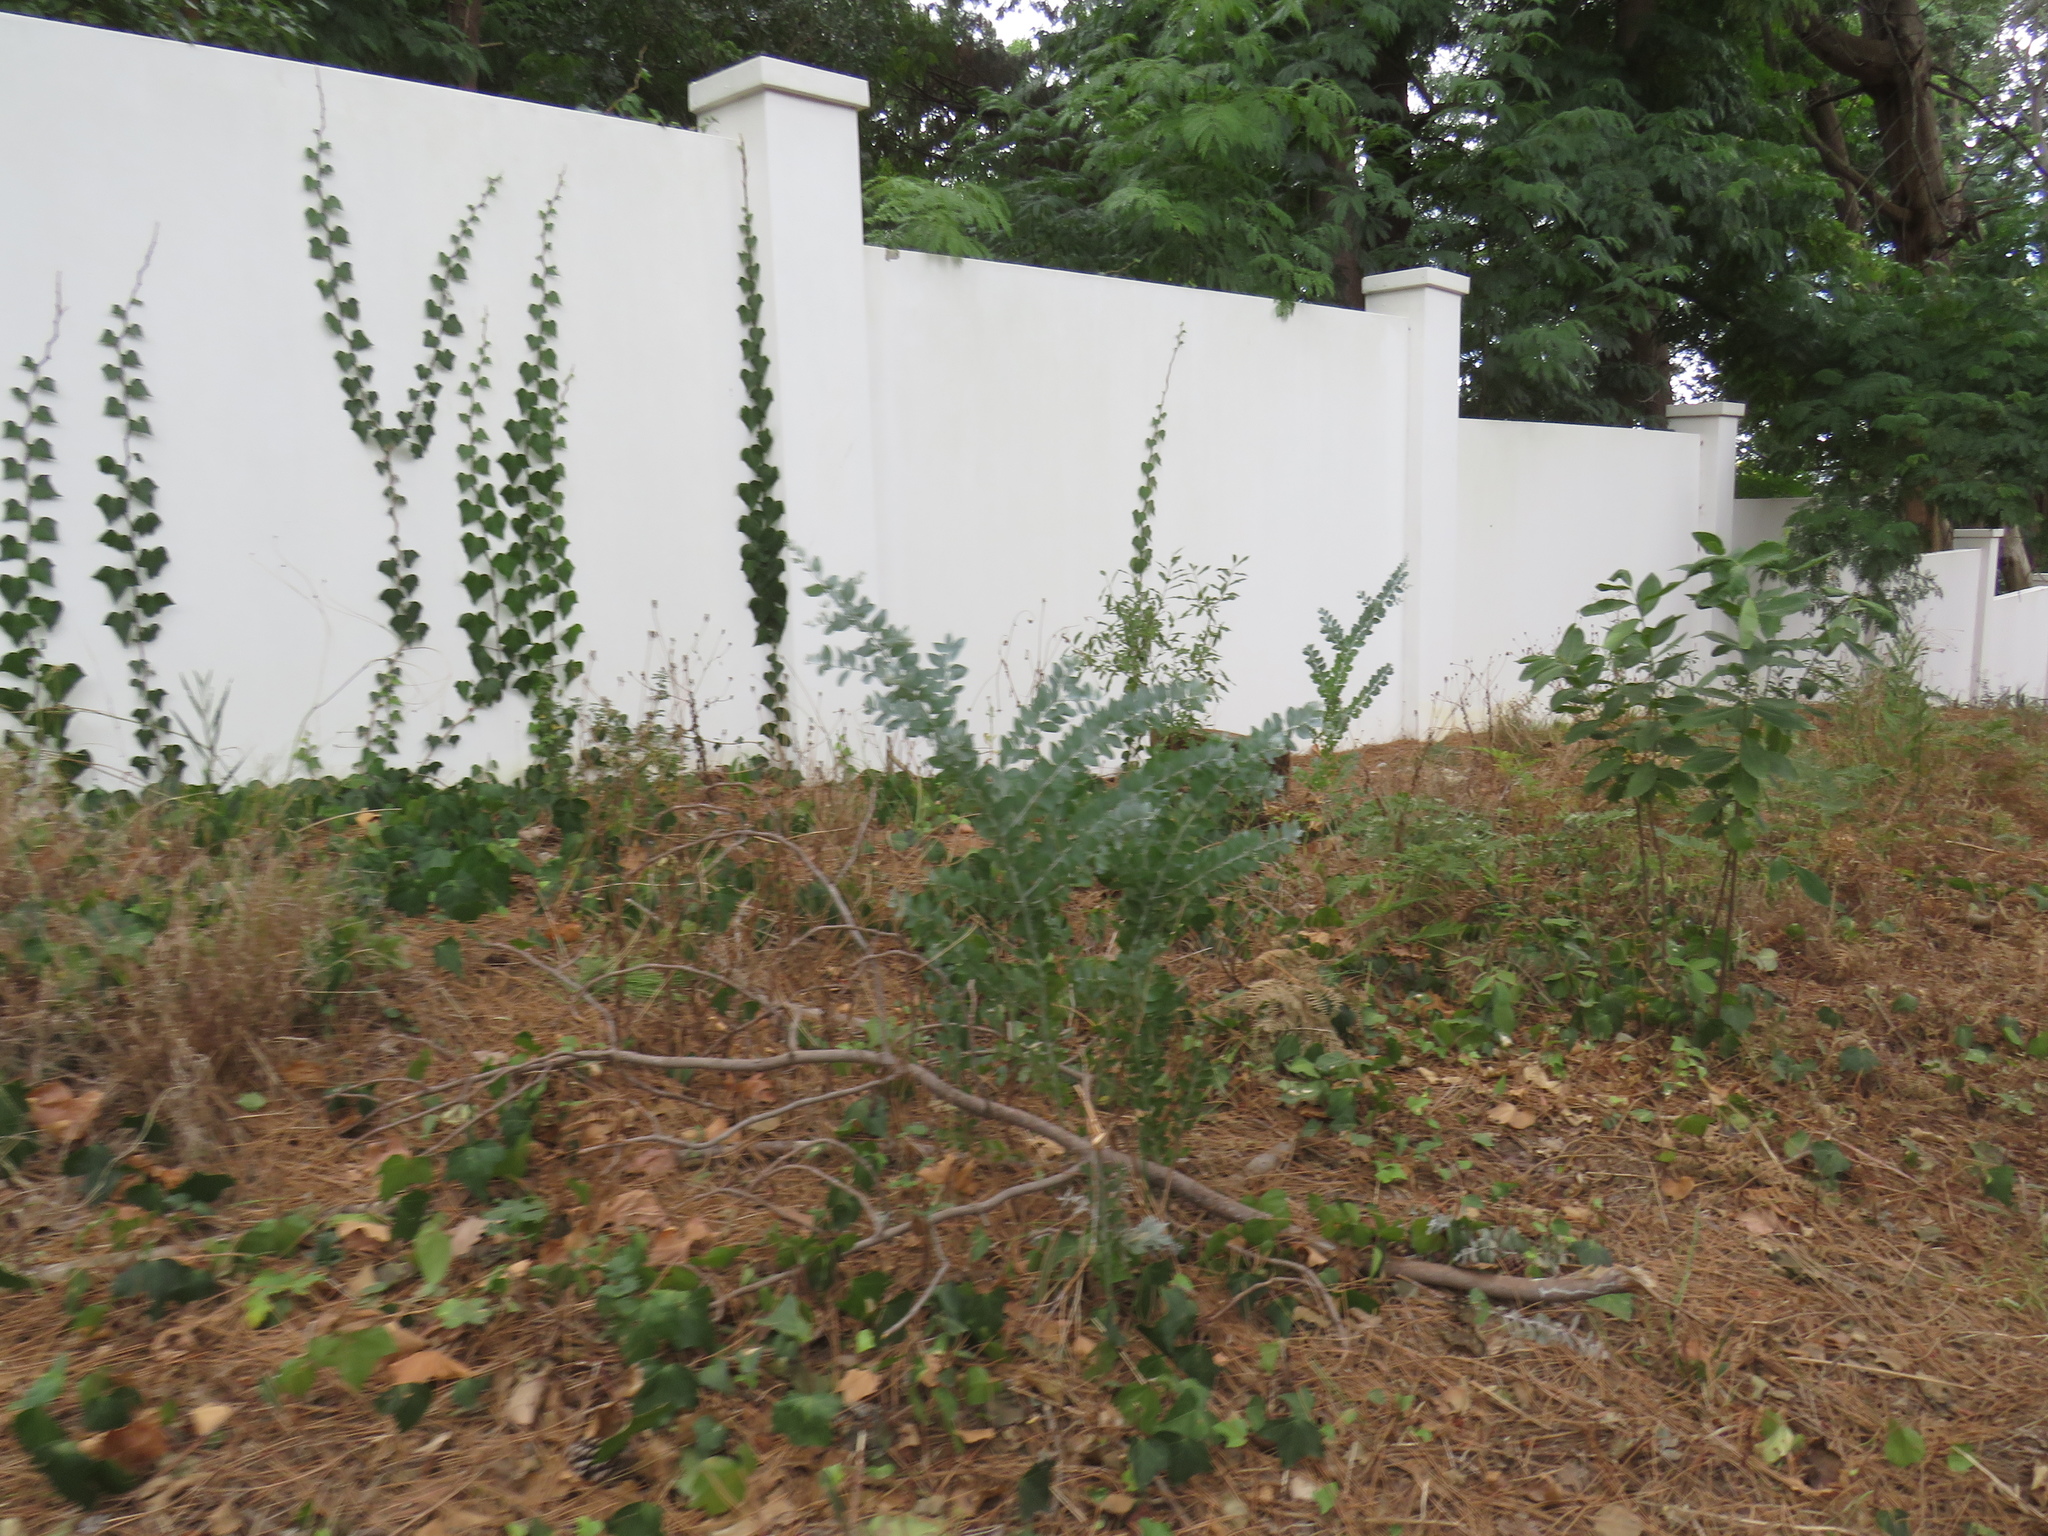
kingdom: Plantae
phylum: Tracheophyta
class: Magnoliopsida
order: Fabales
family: Fabaceae
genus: Acacia
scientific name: Acacia podalyriifolia
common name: Pearl wattle
